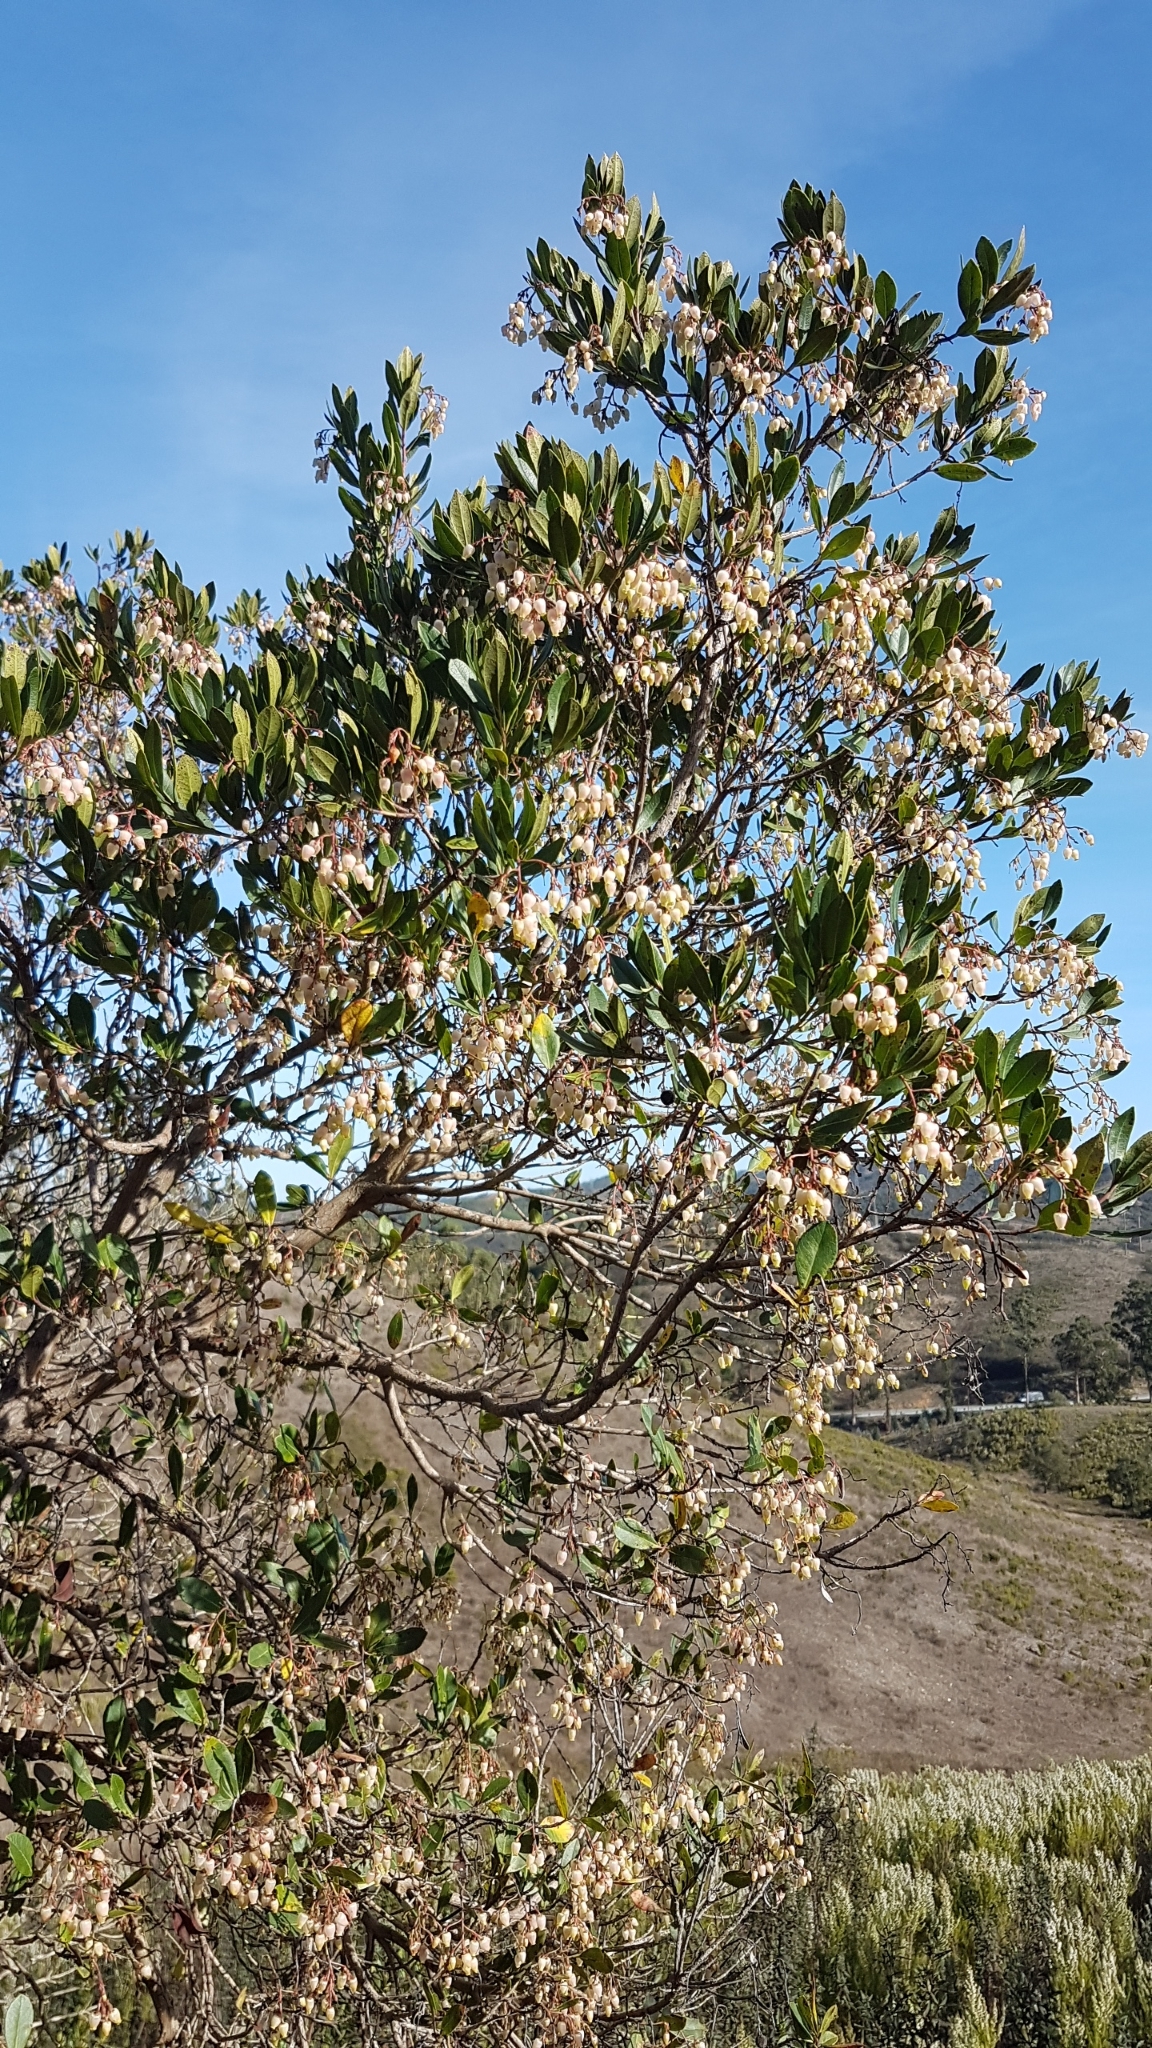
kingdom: Plantae
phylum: Tracheophyta
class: Magnoliopsida
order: Ericales
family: Ericaceae
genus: Arbutus
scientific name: Arbutus unedo
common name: Strawberry-tree
